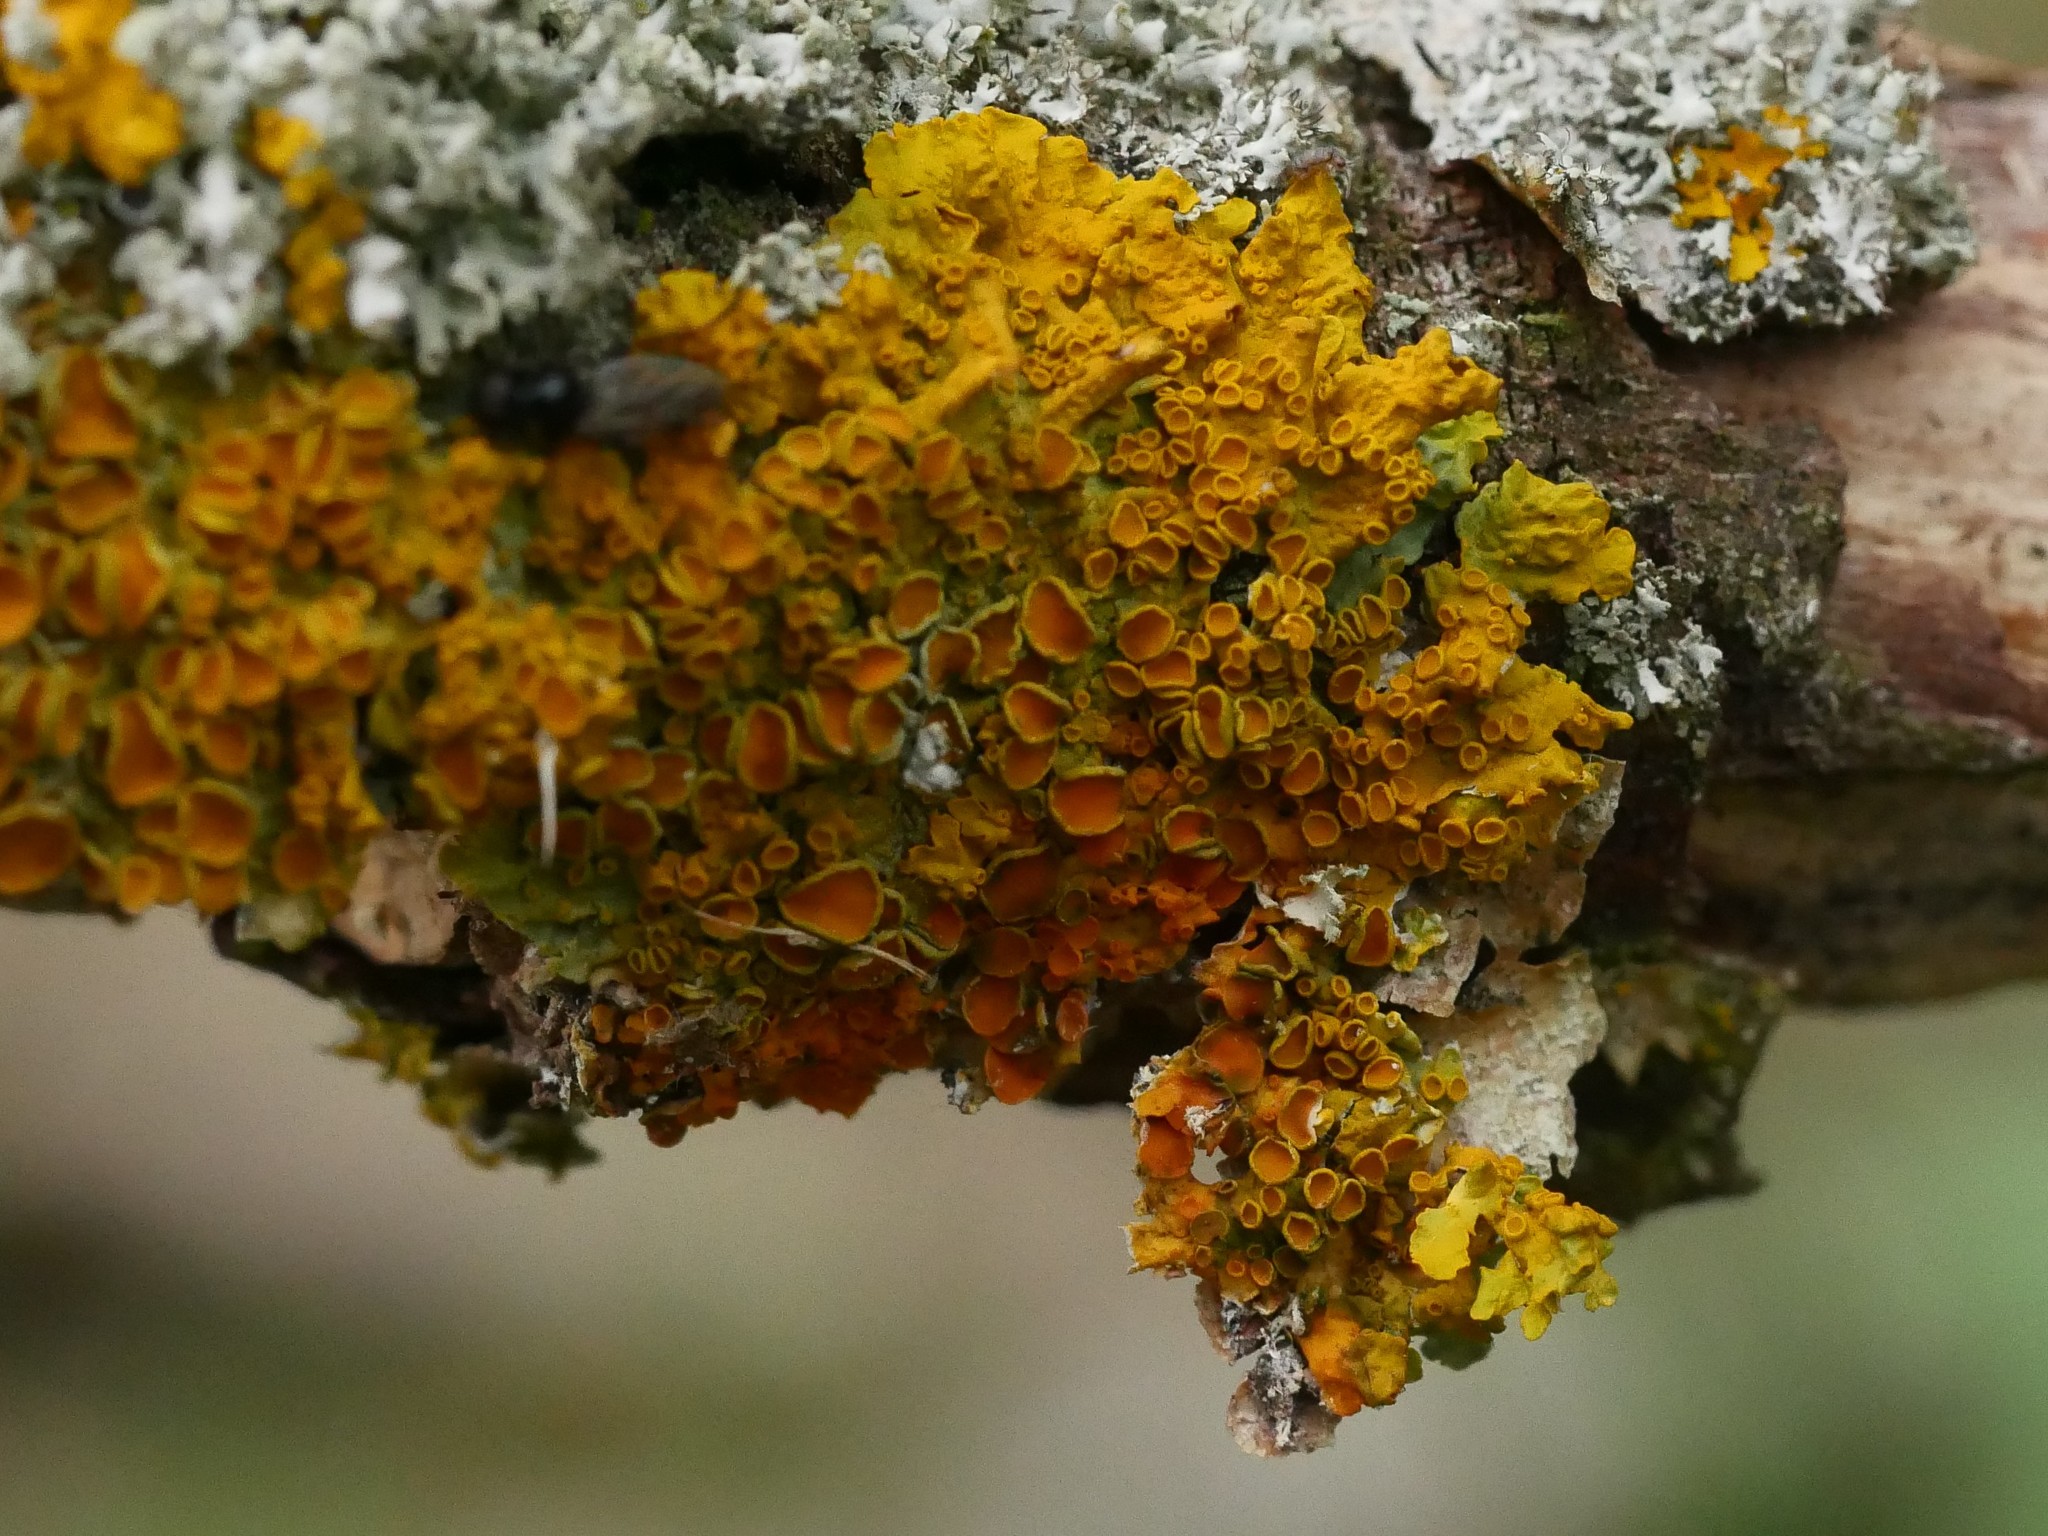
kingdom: Fungi
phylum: Ascomycota
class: Lecanoromycetes
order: Teloschistales
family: Teloschistaceae
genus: Xanthoria
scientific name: Xanthoria parietina
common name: Common orange lichen
